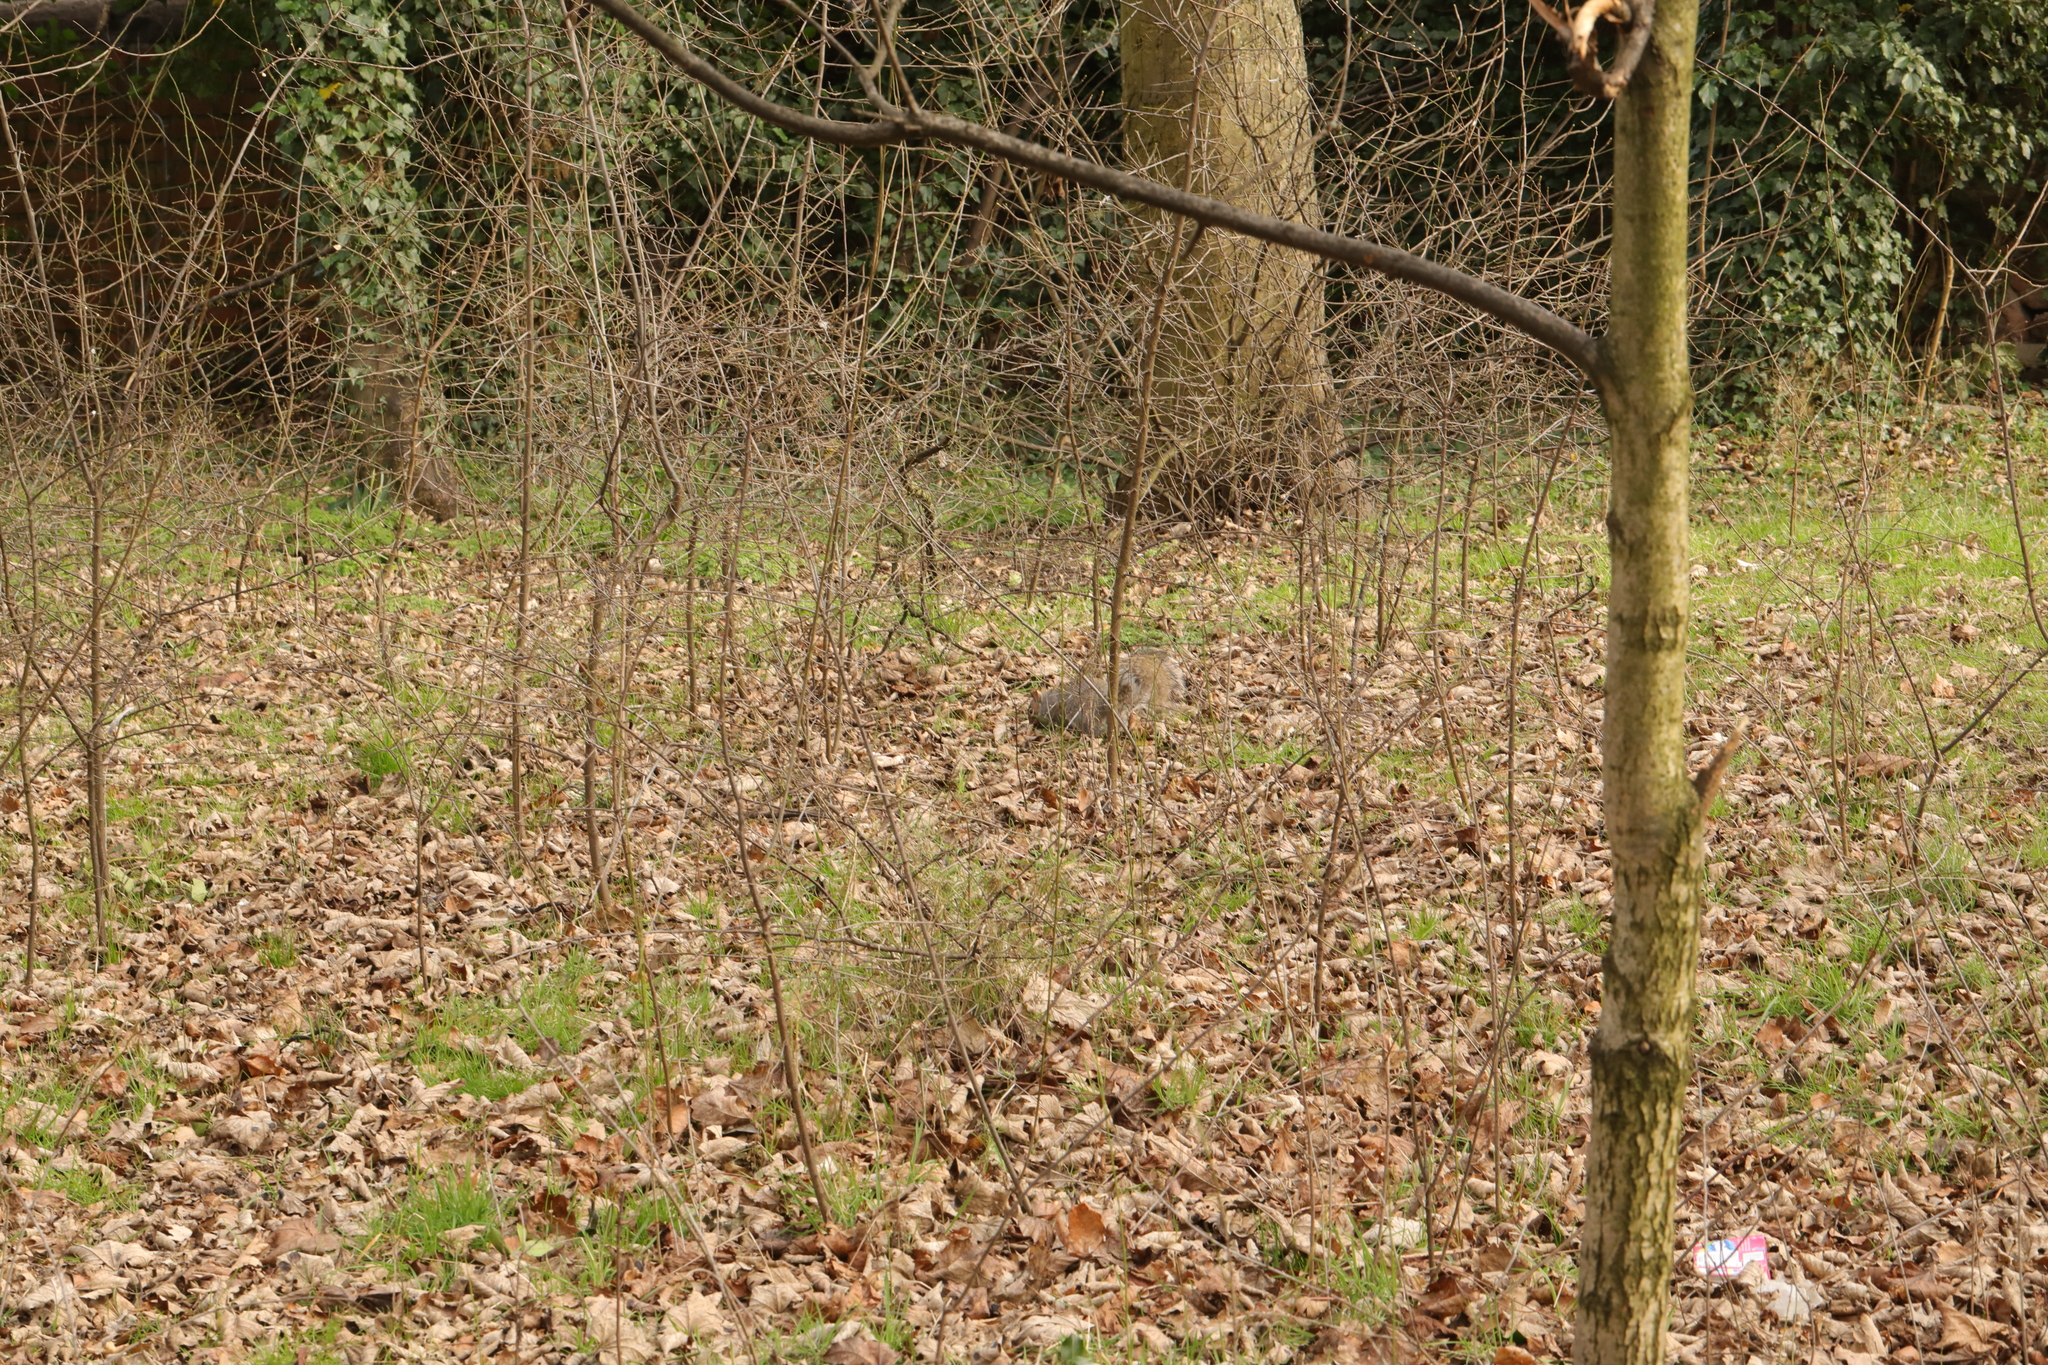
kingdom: Animalia
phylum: Chordata
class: Mammalia
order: Rodentia
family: Sciuridae
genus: Sciurus
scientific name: Sciurus carolinensis
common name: Eastern gray squirrel
